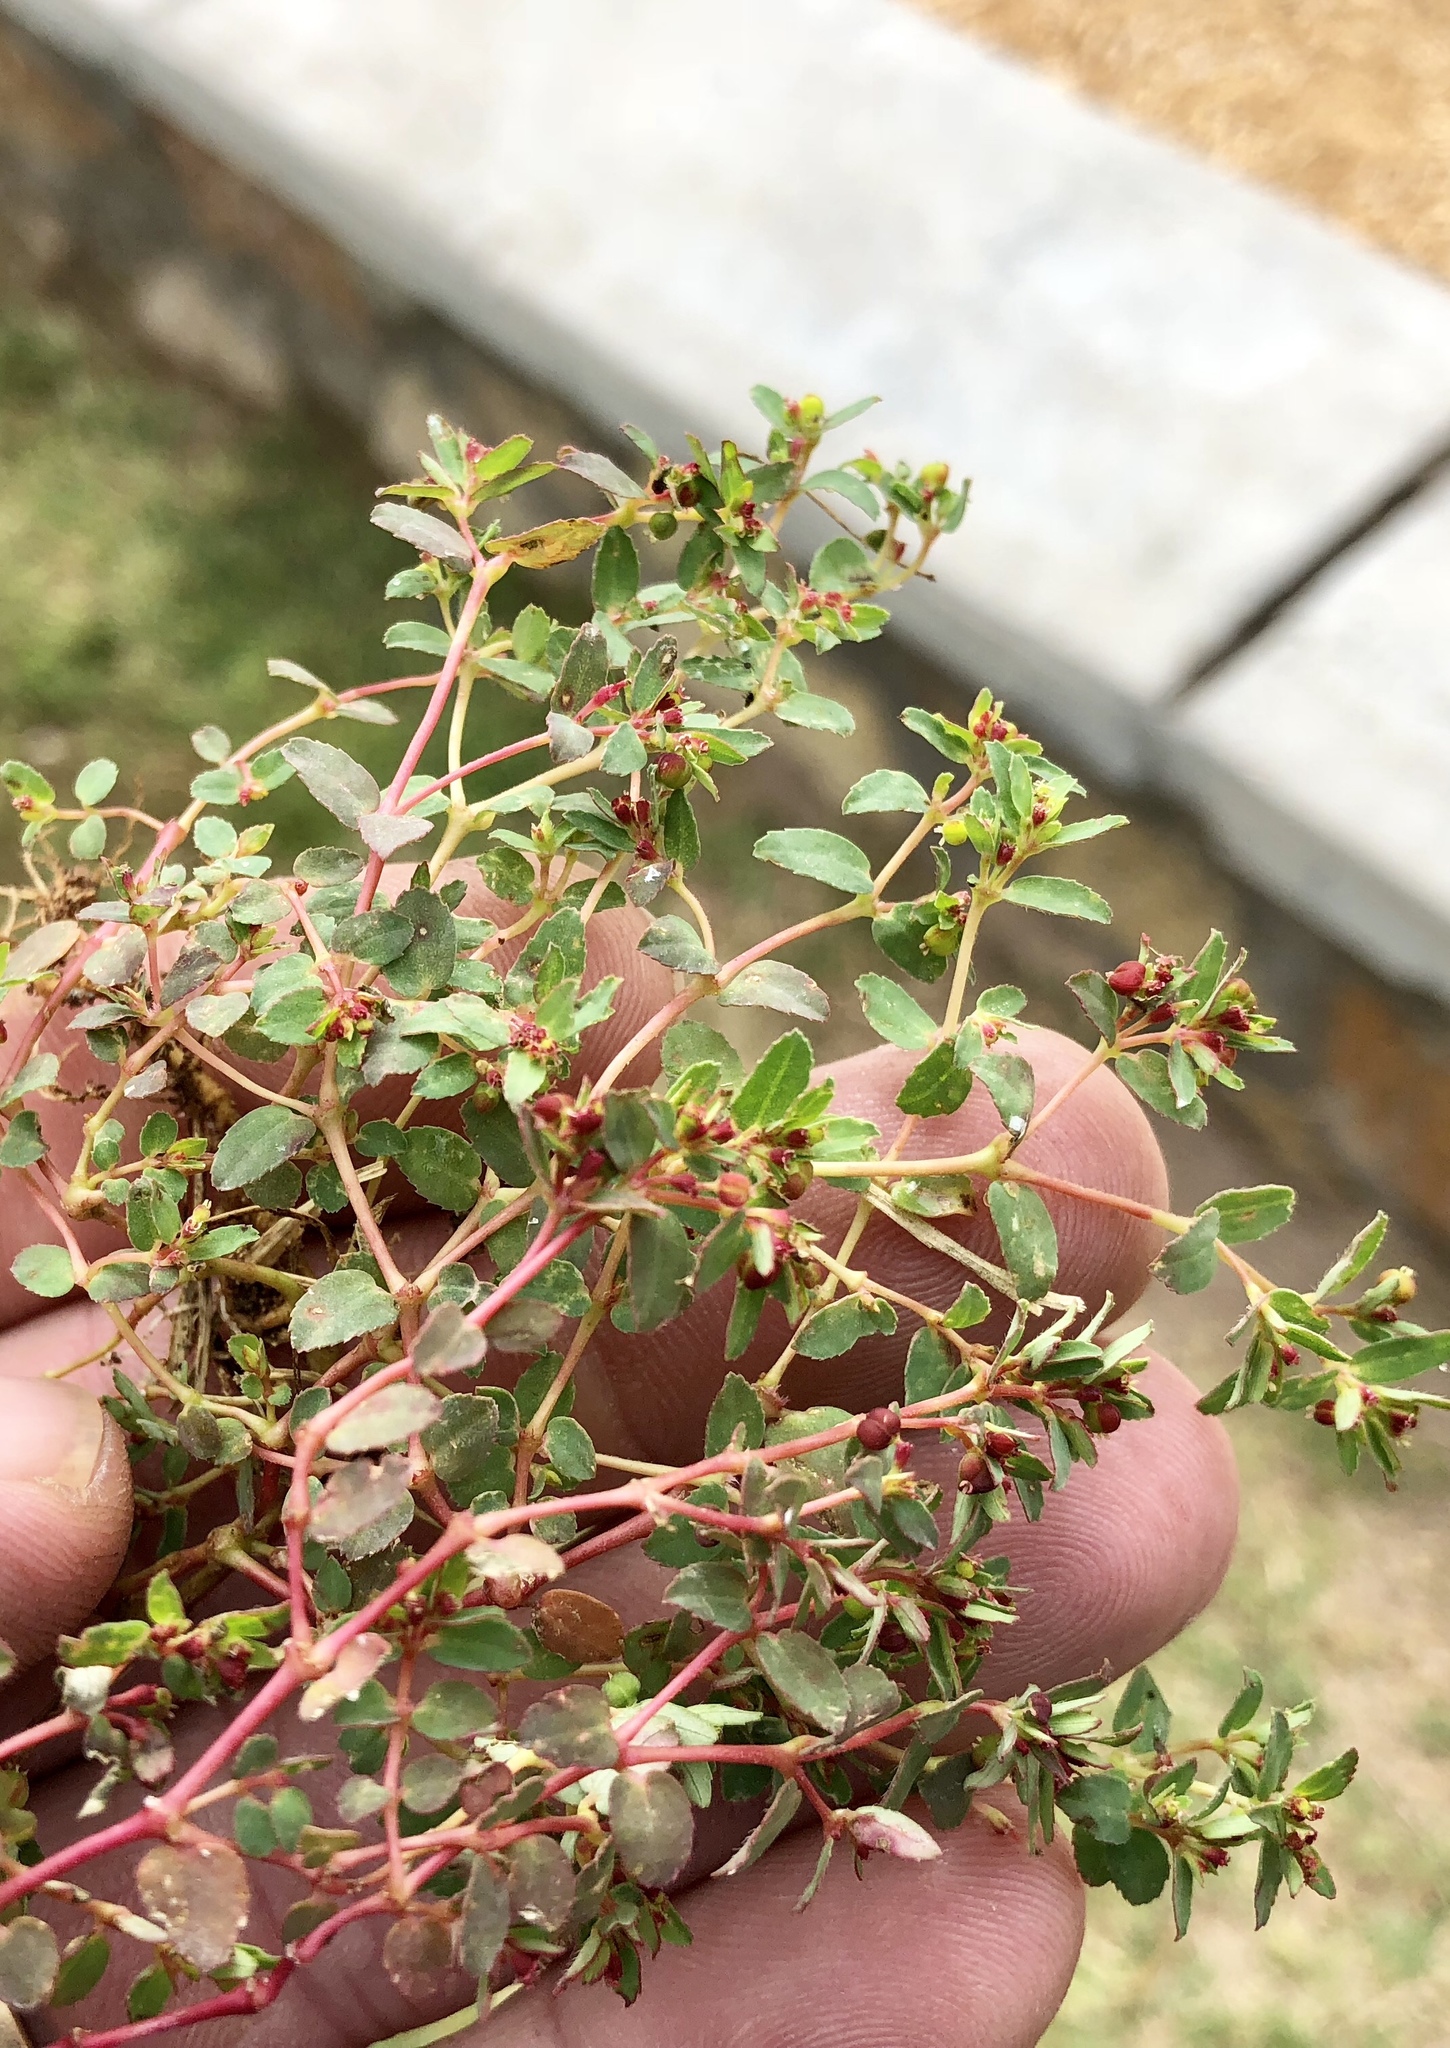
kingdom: Plantae
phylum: Tracheophyta
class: Magnoliopsida
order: Malpighiales
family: Euphorbiaceae
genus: Euphorbia
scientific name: Euphorbia vermiculata
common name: Hairy spurge
